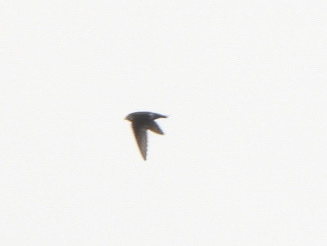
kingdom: Animalia
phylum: Chordata
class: Aves
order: Passeriformes
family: Hirundinidae
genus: Tachycineta
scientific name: Tachycineta thalassina
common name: Violet-green swallow
